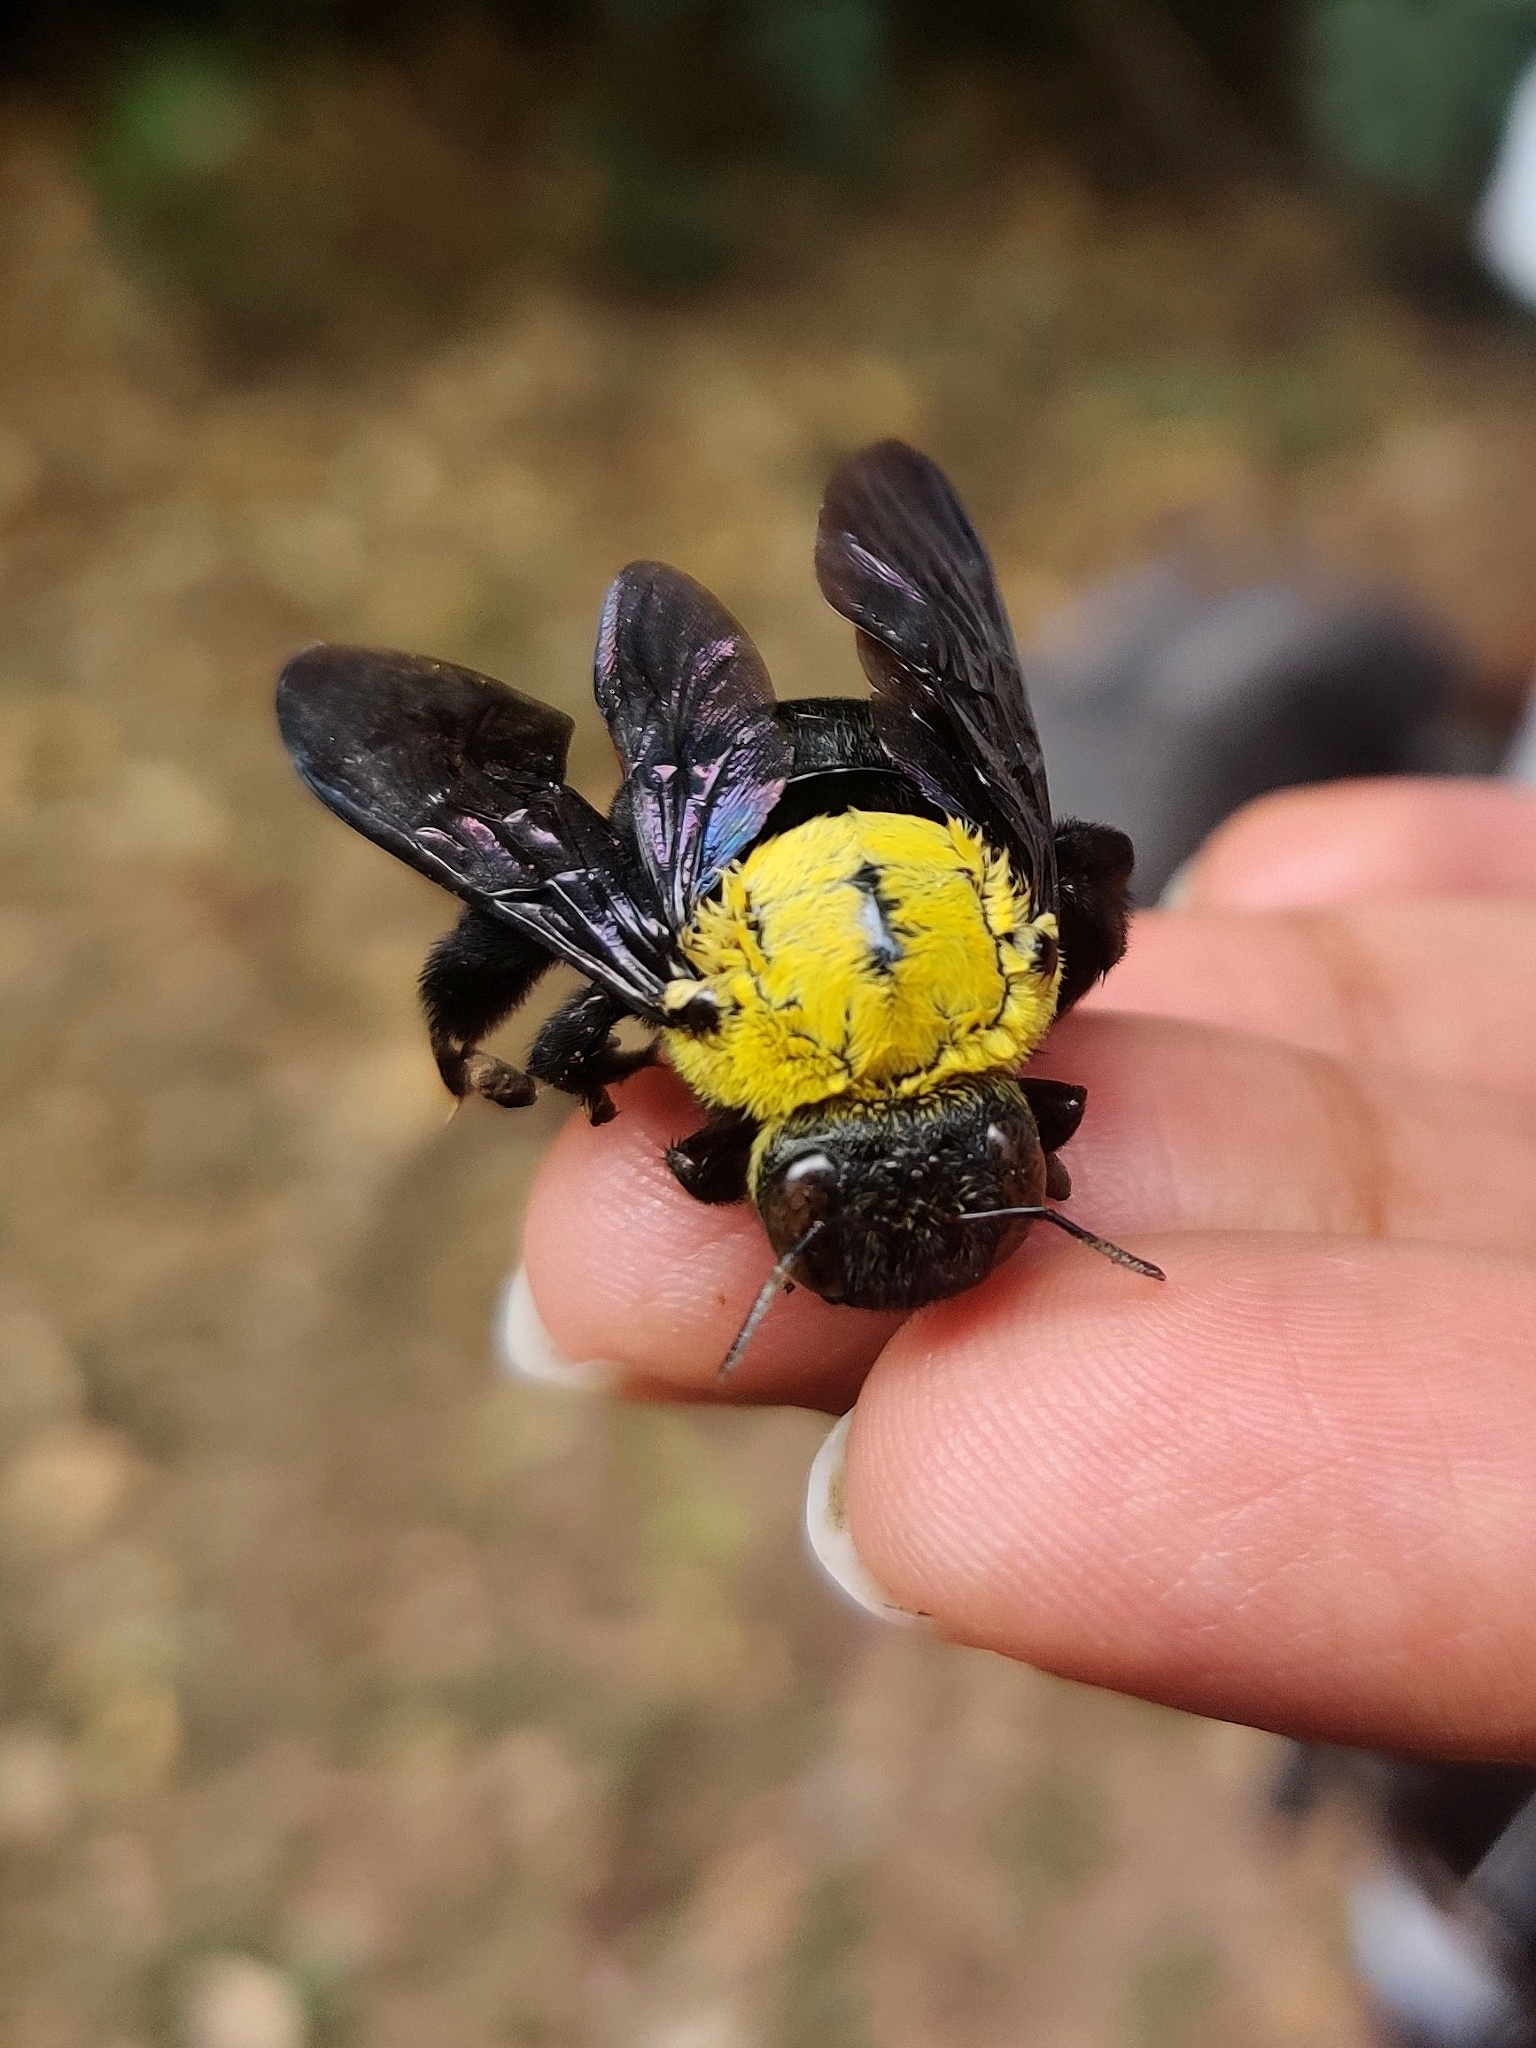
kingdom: Animalia
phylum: Arthropoda
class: Insecta
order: Hymenoptera
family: Apidae
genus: Xylocopa
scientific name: Xylocopa ruficornis
